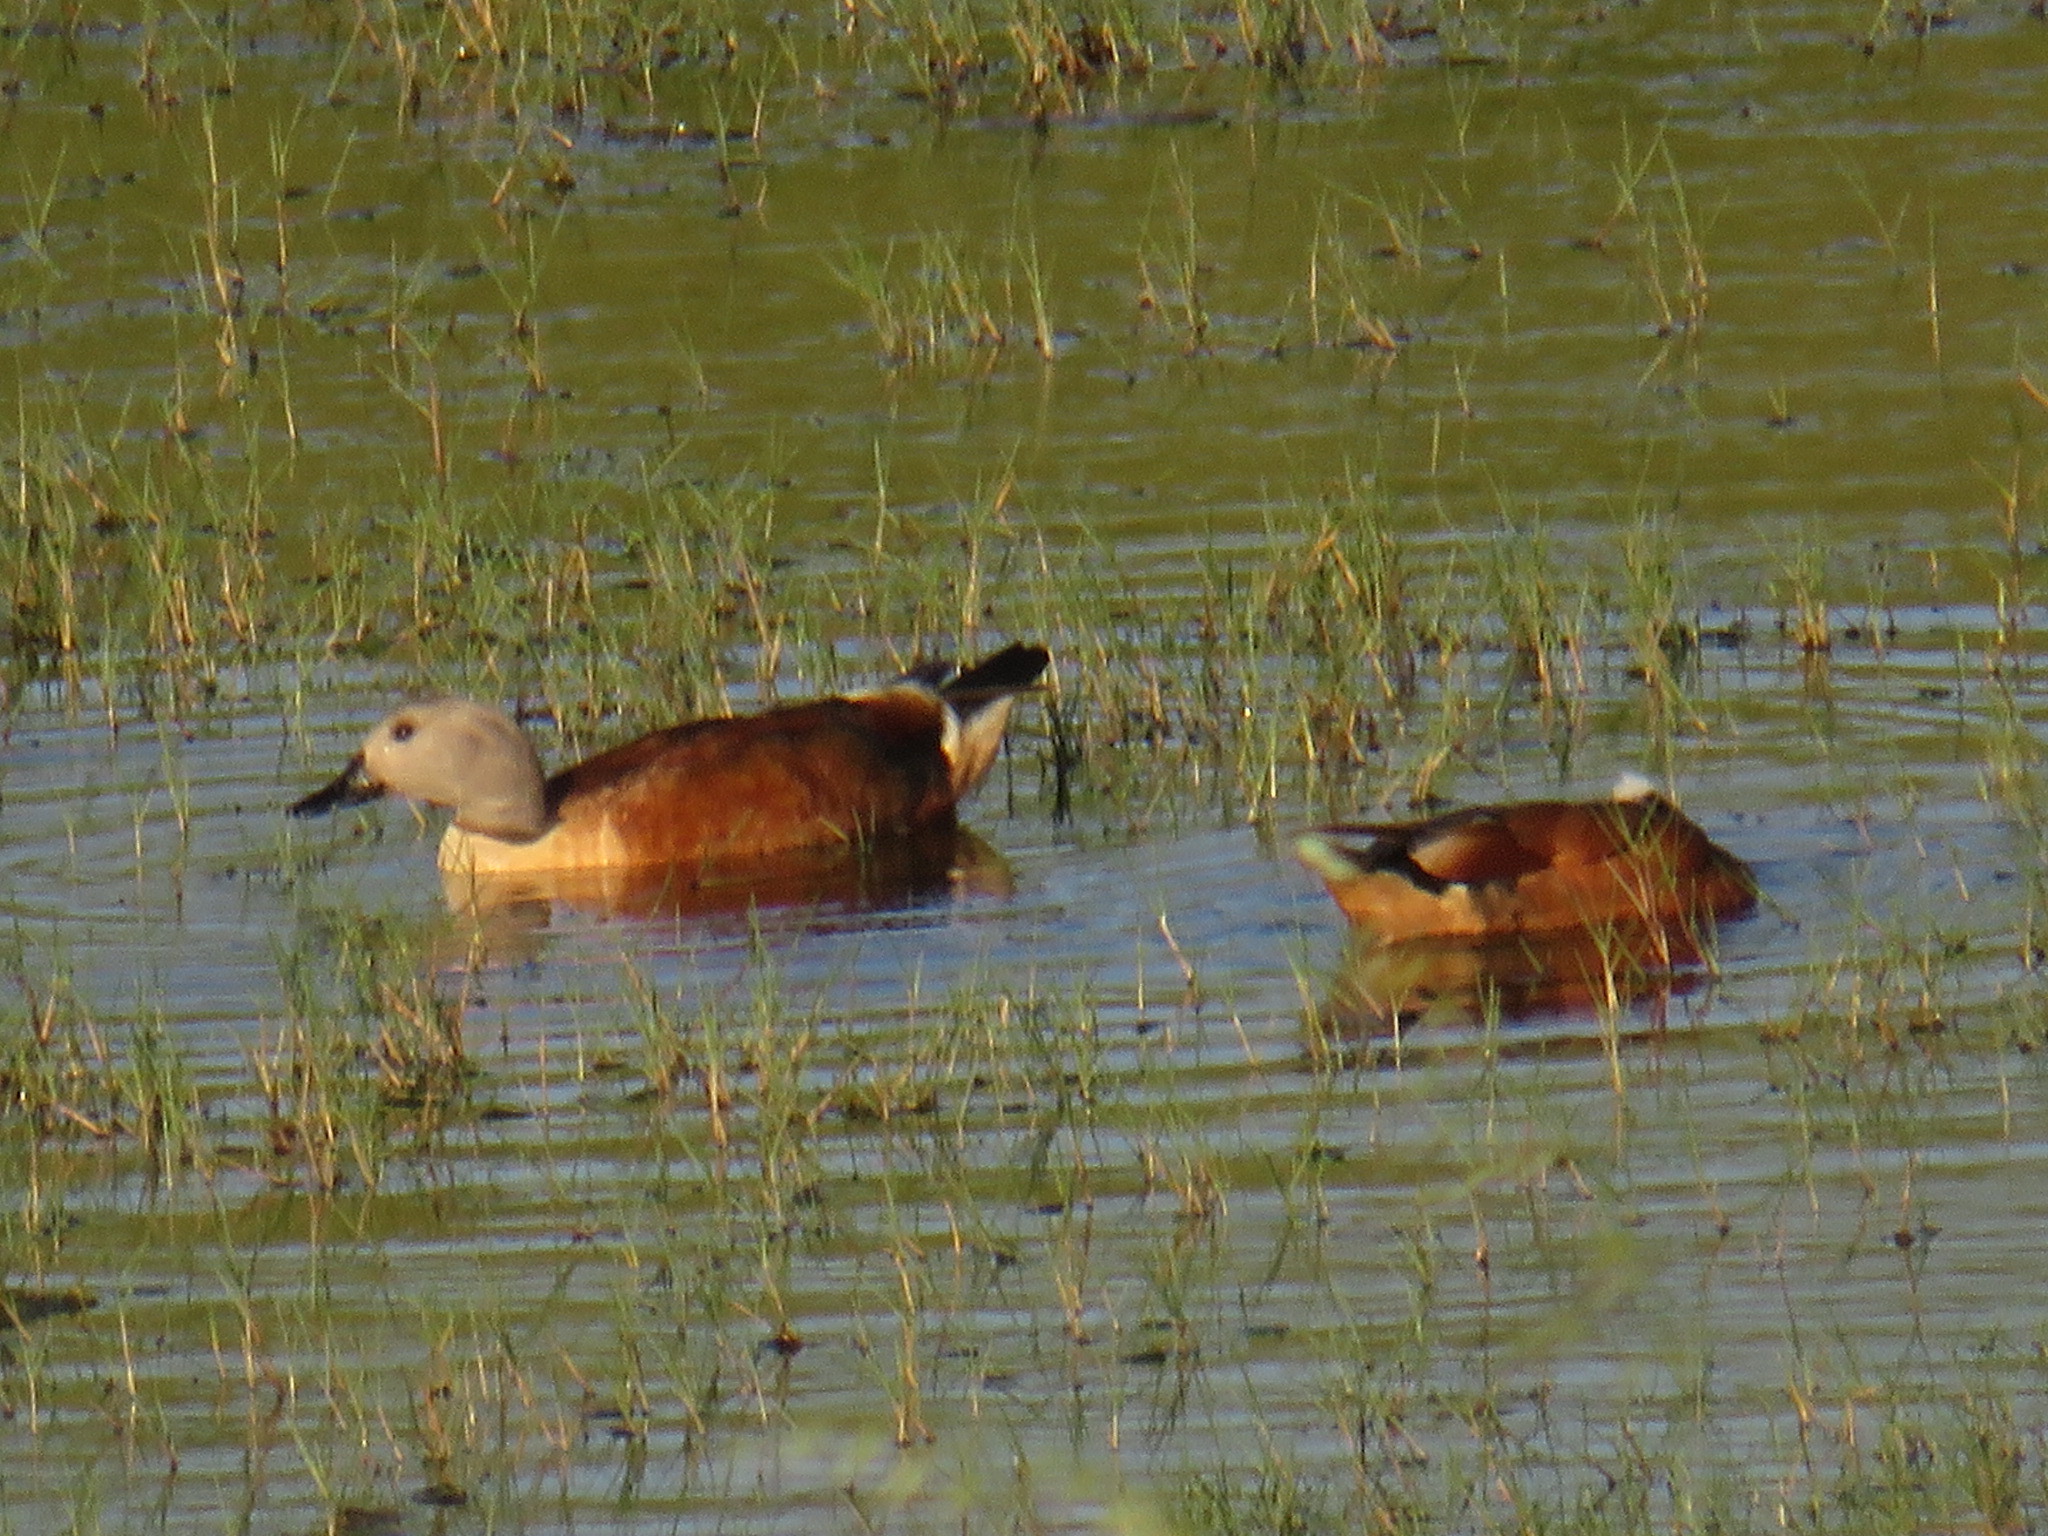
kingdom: Animalia
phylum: Chordata
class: Aves
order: Anseriformes
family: Anatidae
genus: Tadorna
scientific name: Tadorna cana
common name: South african shelduck
